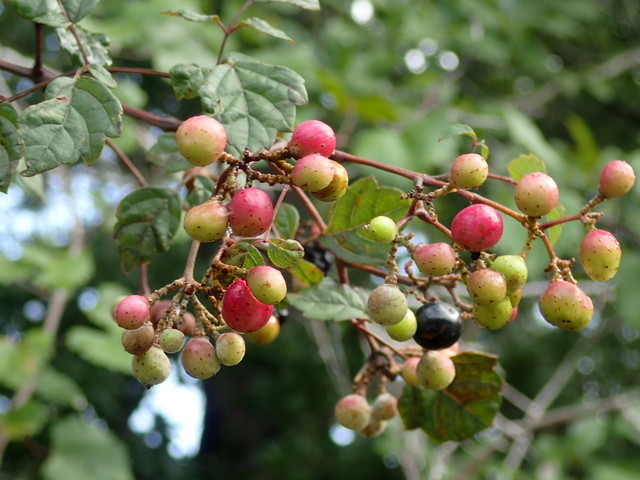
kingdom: Plantae
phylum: Tracheophyta
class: Magnoliopsida
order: Vitales
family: Vitaceae
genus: Nekemias
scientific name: Nekemias arborea
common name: Peppervine
